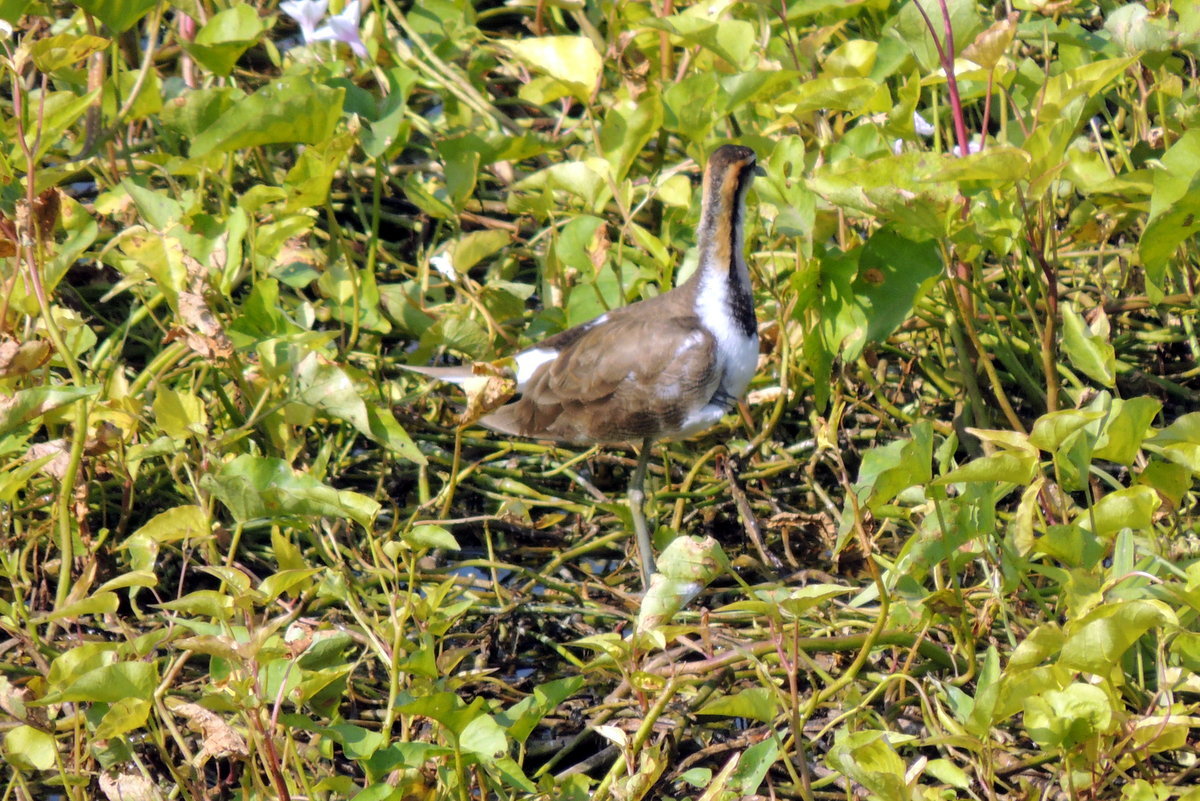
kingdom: Animalia
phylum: Chordata
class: Aves
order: Charadriiformes
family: Jacanidae
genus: Hydrophasianus
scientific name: Hydrophasianus chirurgus
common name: Pheasant-tailed jacana
